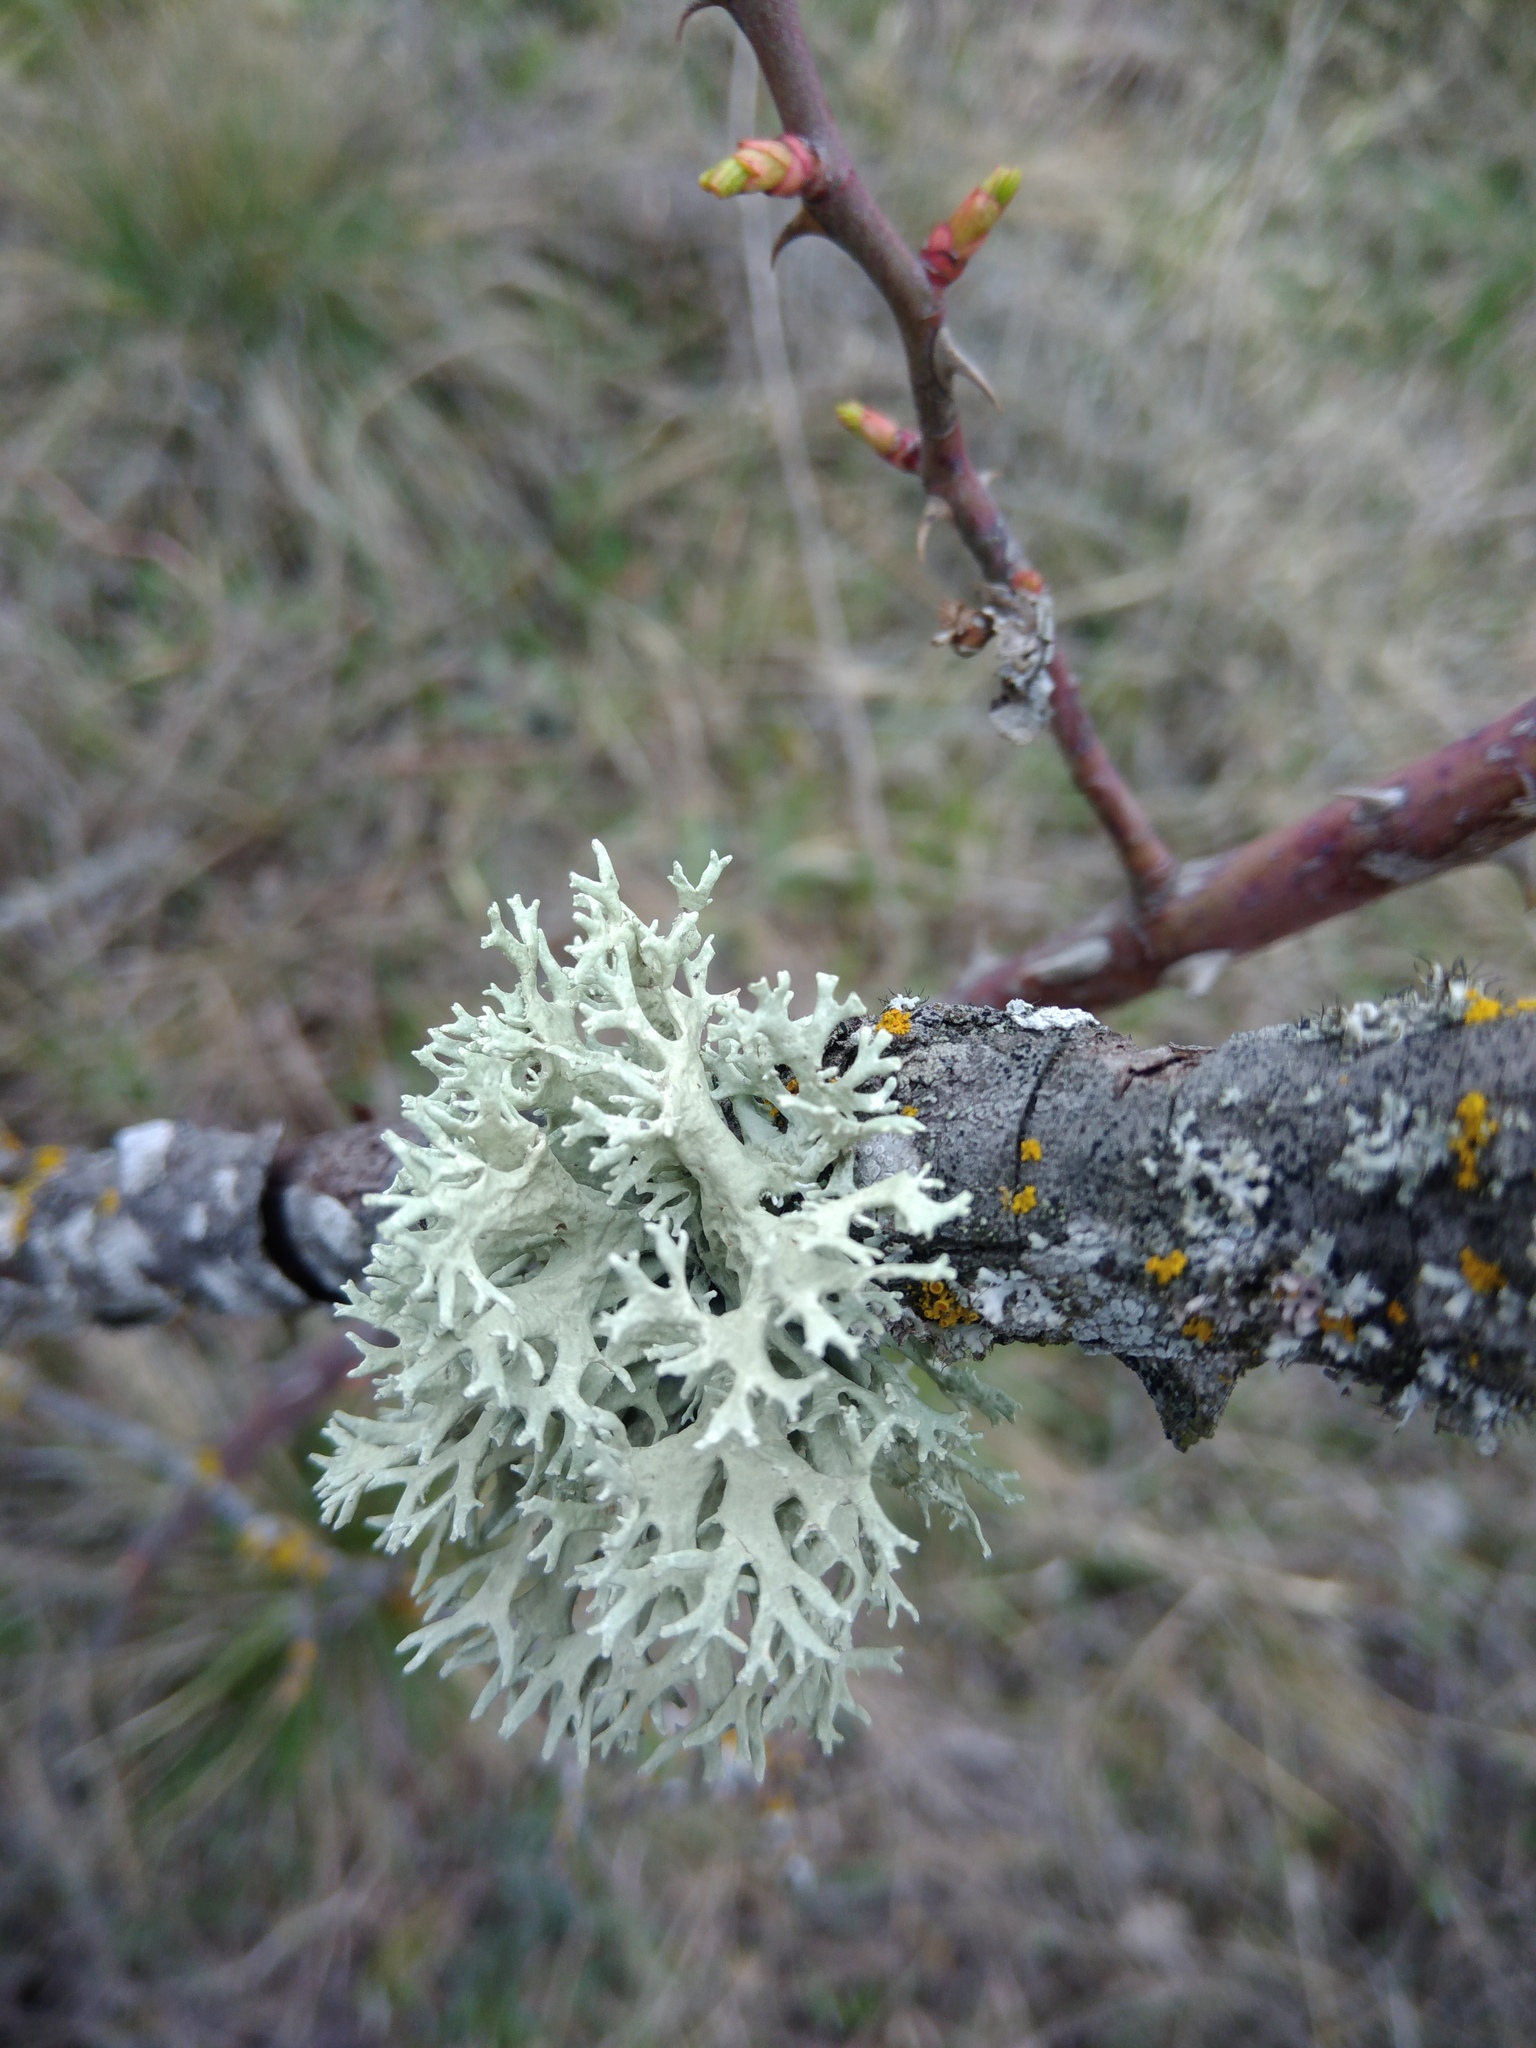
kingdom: Fungi
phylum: Ascomycota
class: Lecanoromycetes
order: Lecanorales
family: Parmeliaceae
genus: Evernia
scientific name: Evernia prunastri
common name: Oak moss
